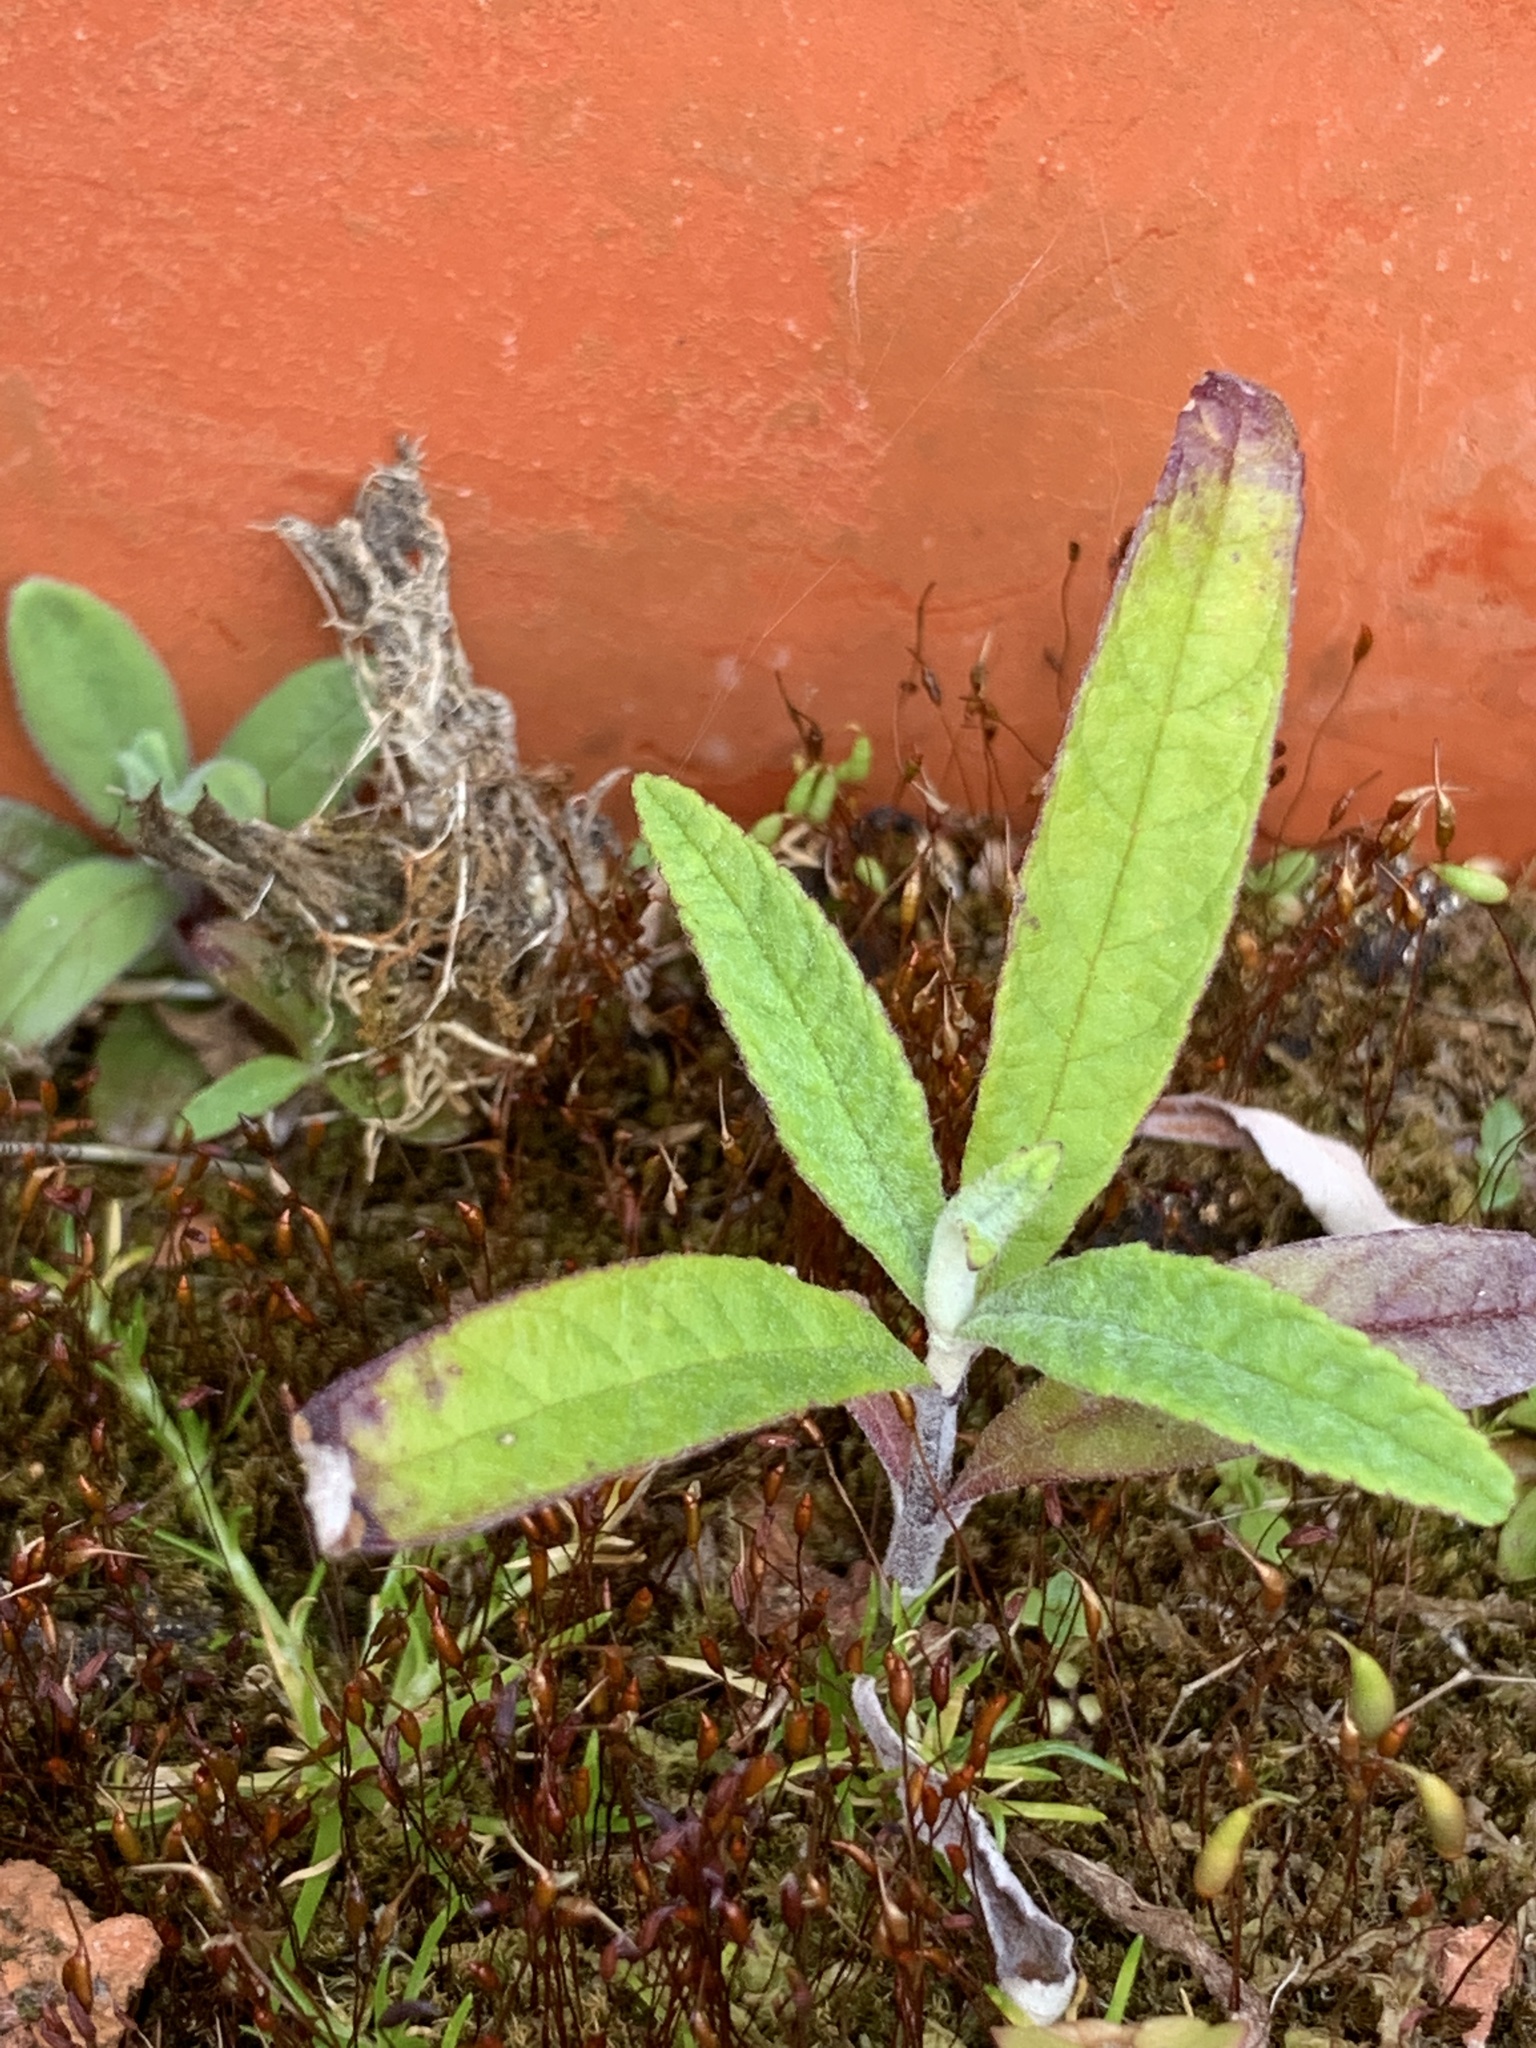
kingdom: Plantae
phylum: Tracheophyta
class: Magnoliopsida
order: Lamiales
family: Scrophulariaceae
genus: Buddleja
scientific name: Buddleja davidii
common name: Butterfly-bush
